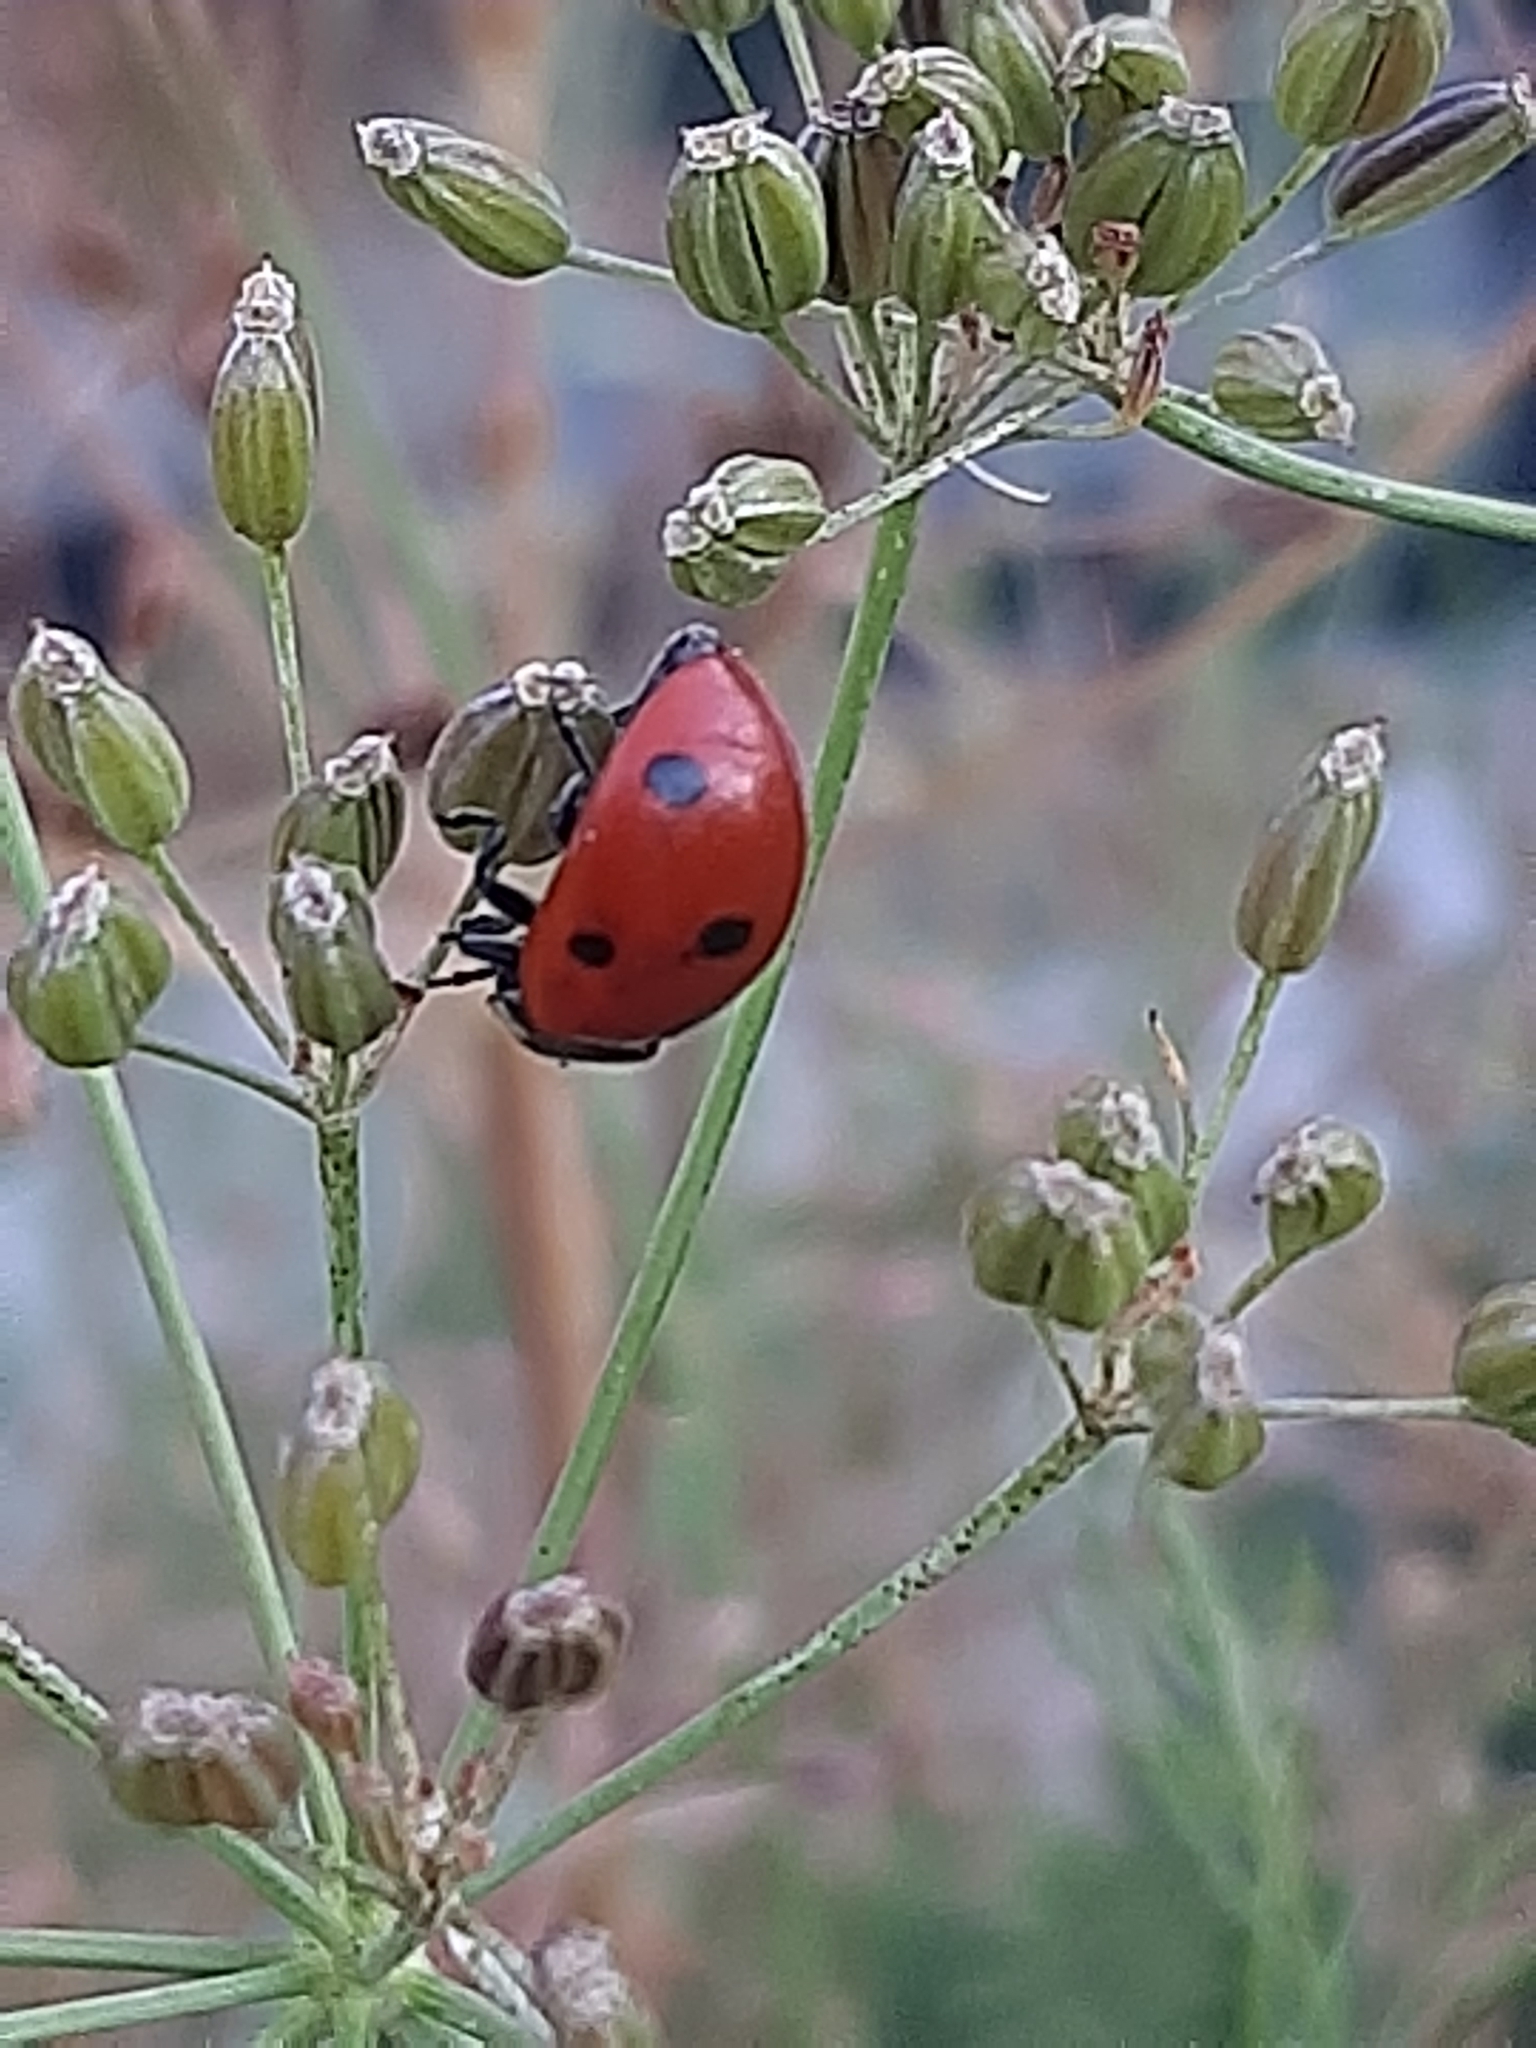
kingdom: Animalia
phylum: Arthropoda
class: Insecta
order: Coleoptera
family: Coccinellidae
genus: Coccinella
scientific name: Coccinella septempunctata
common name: Sevenspotted lady beetle
